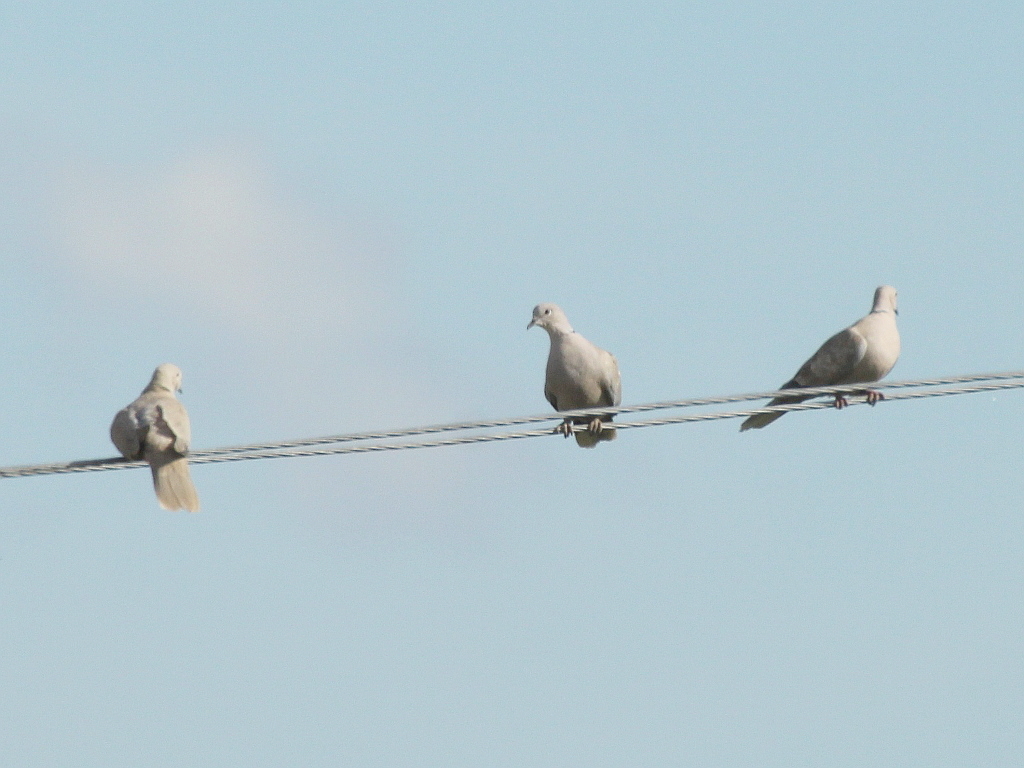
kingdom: Animalia
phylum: Chordata
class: Aves
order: Columbiformes
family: Columbidae
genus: Streptopelia
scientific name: Streptopelia decaocto
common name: Eurasian collared dove
